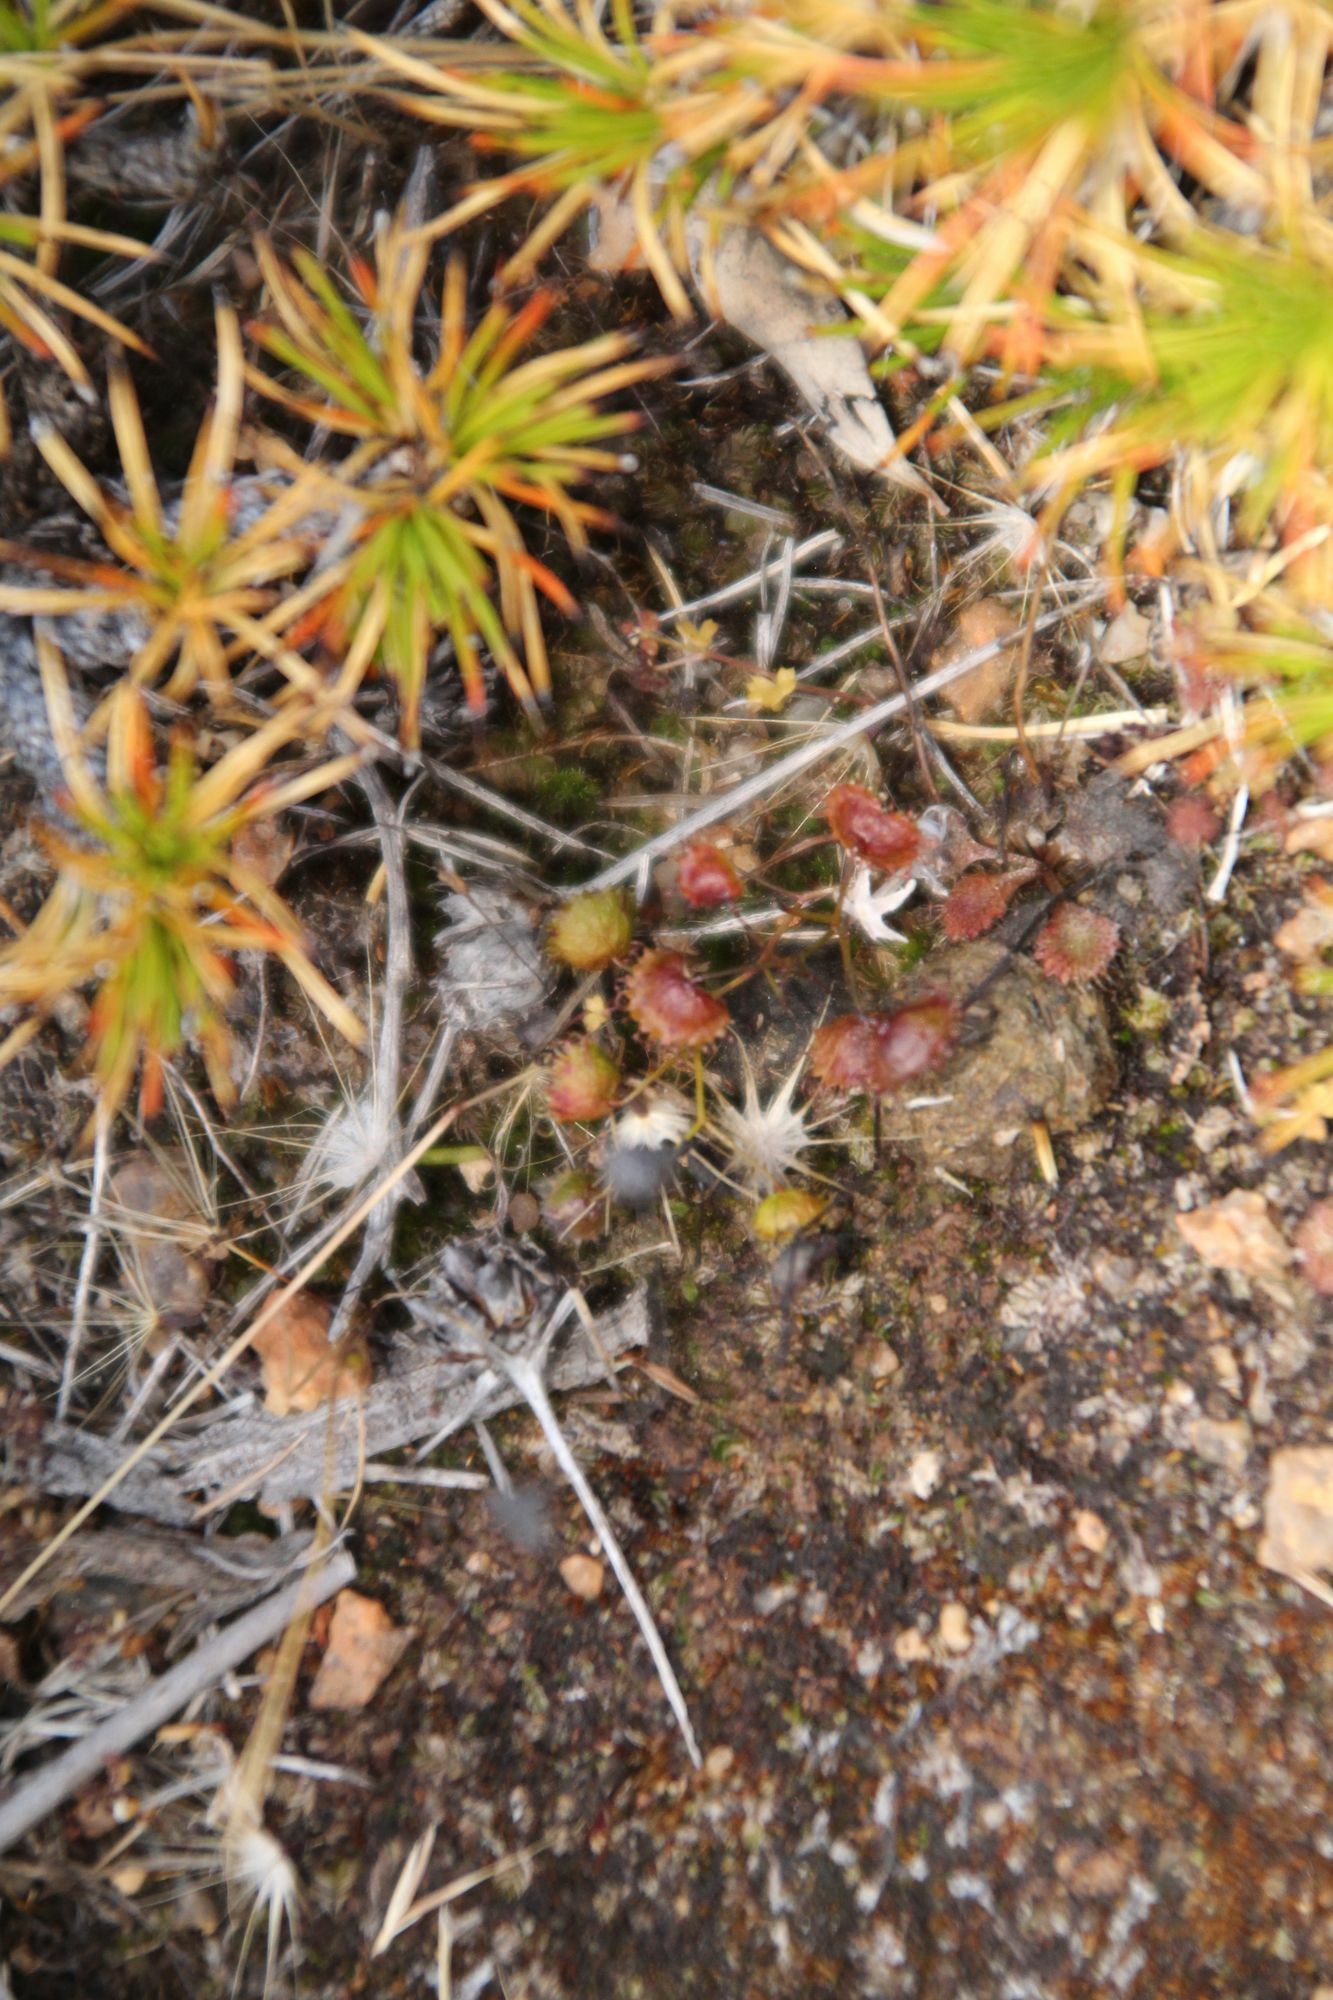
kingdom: Plantae
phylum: Tracheophyta
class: Magnoliopsida
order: Caryophyllales
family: Droseraceae
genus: Drosera
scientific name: Drosera macrantha
